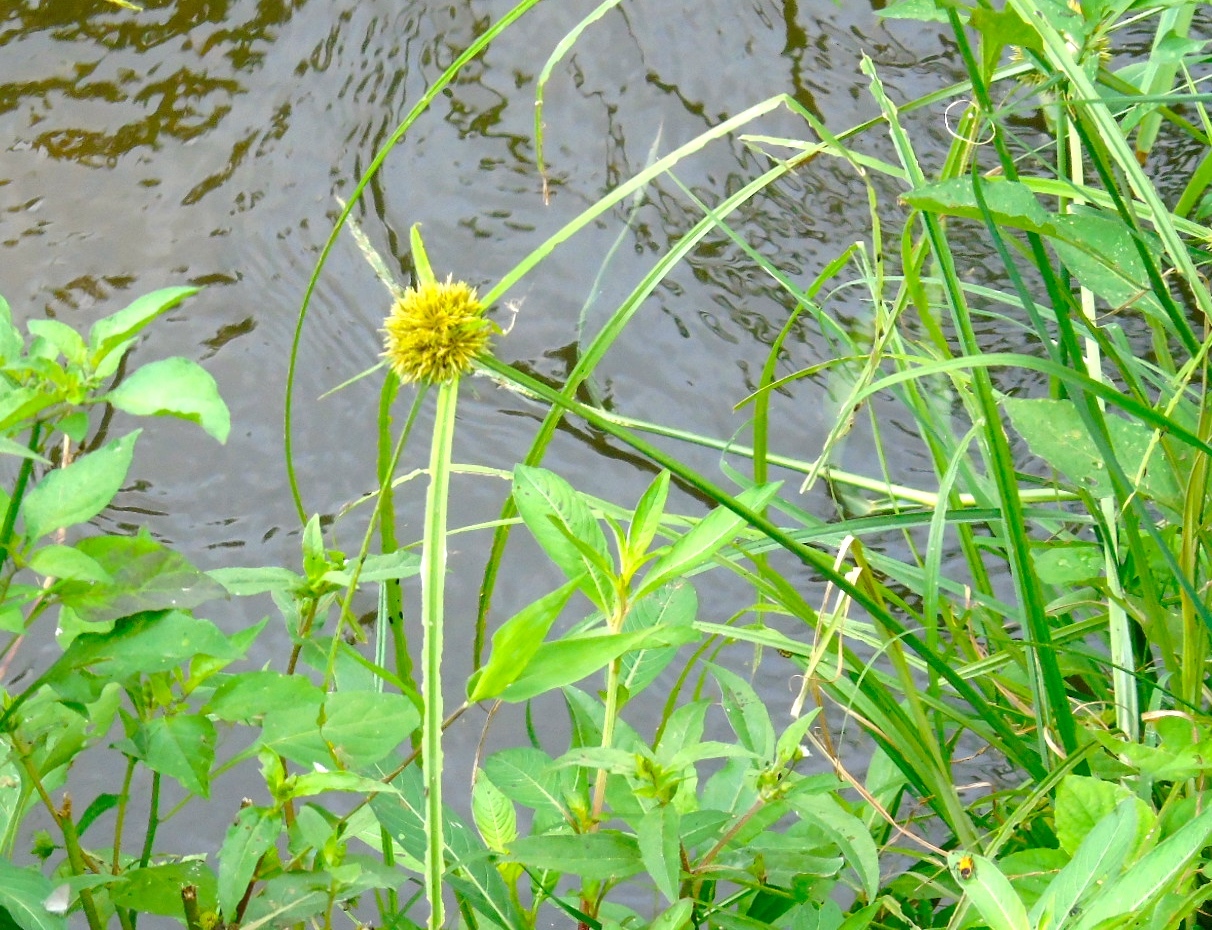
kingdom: Plantae
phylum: Tracheophyta
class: Liliopsida
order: Poales
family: Cyperaceae
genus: Cyperus
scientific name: Cyperus
